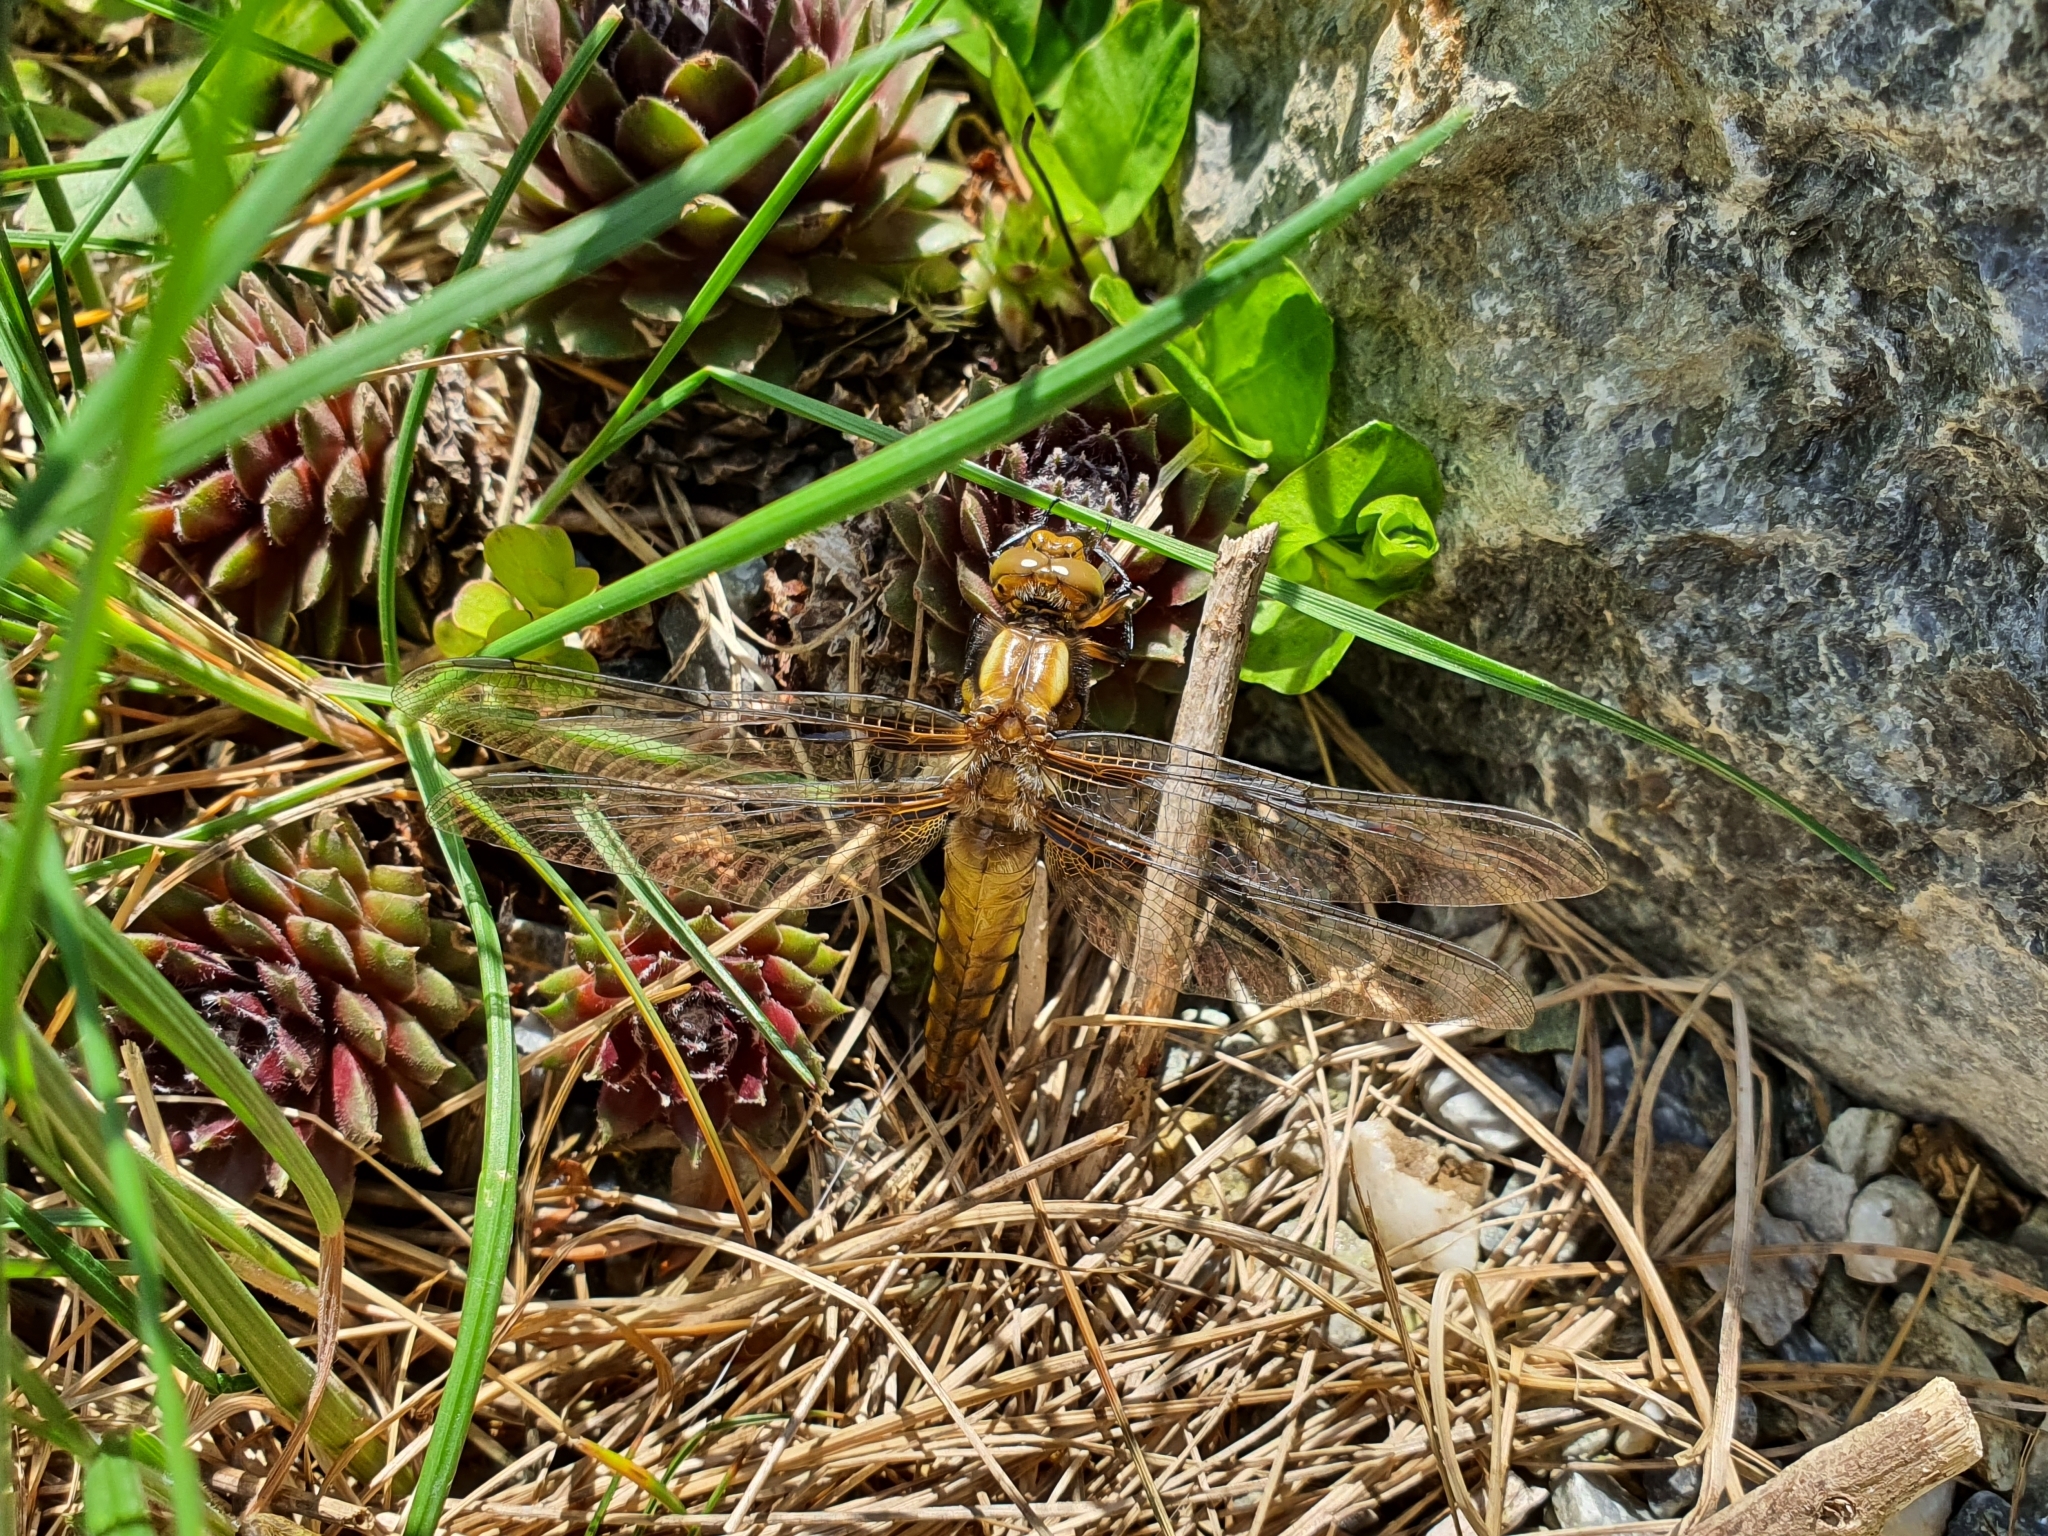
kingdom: Animalia
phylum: Arthropoda
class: Insecta
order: Odonata
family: Libellulidae
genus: Libellula
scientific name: Libellula depressa
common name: Broad-bodied chaser
